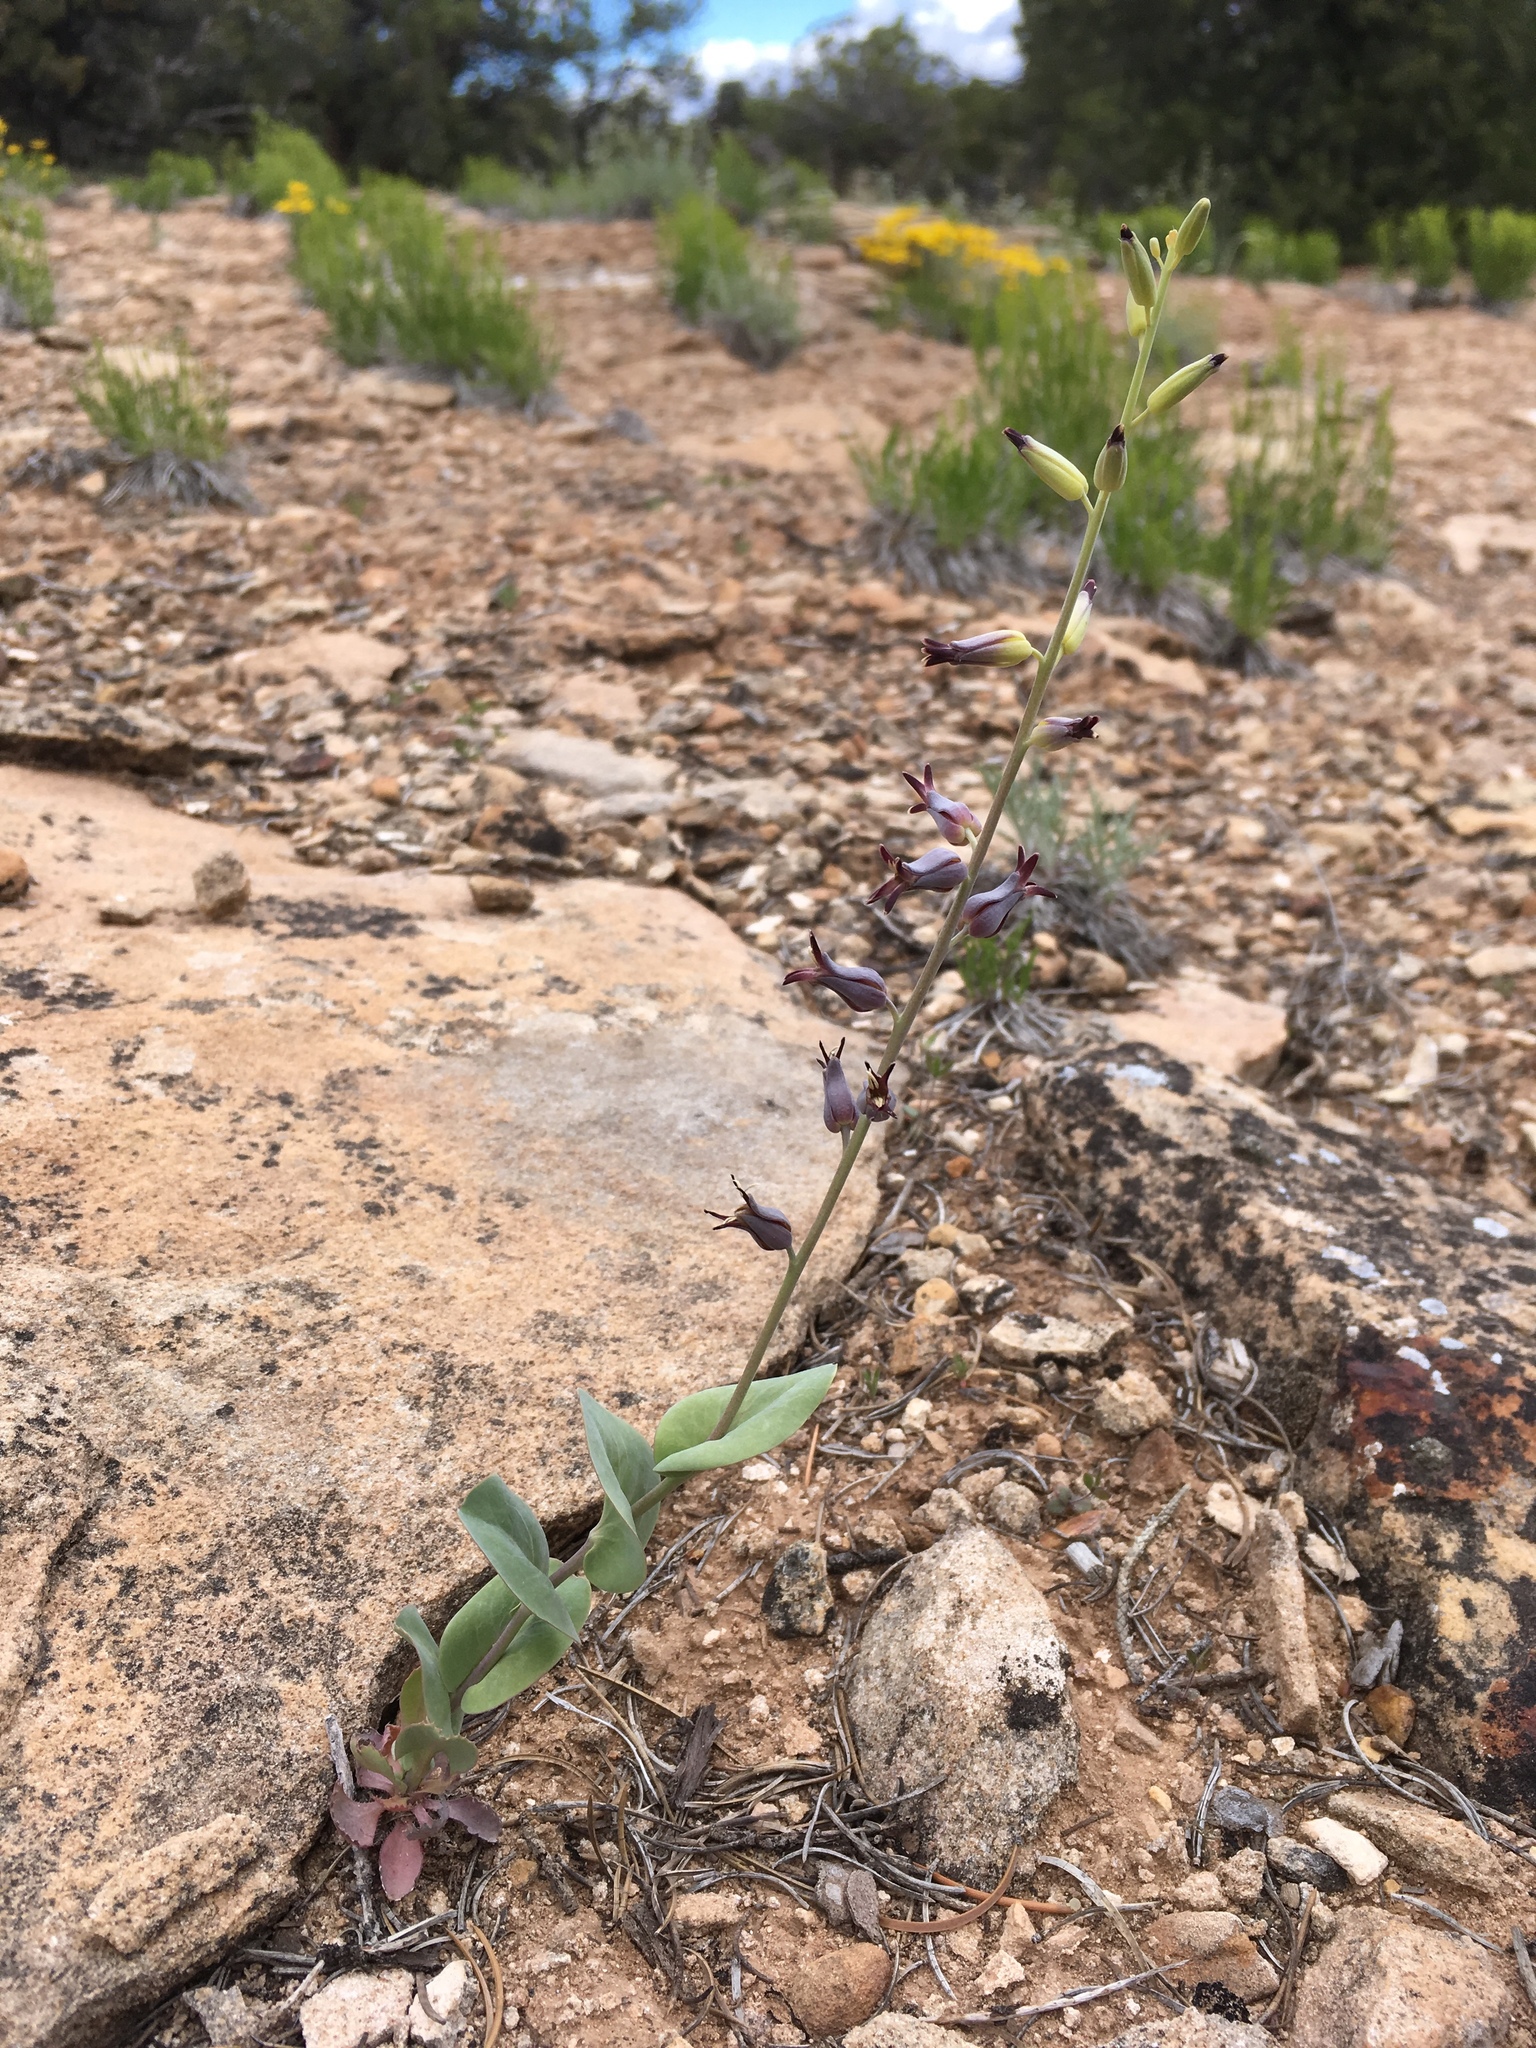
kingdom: Plantae
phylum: Tracheophyta
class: Magnoliopsida
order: Brassicales
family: Brassicaceae
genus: Streptanthus
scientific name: Streptanthus cordatus
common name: Heart-leaf jewel-flower
